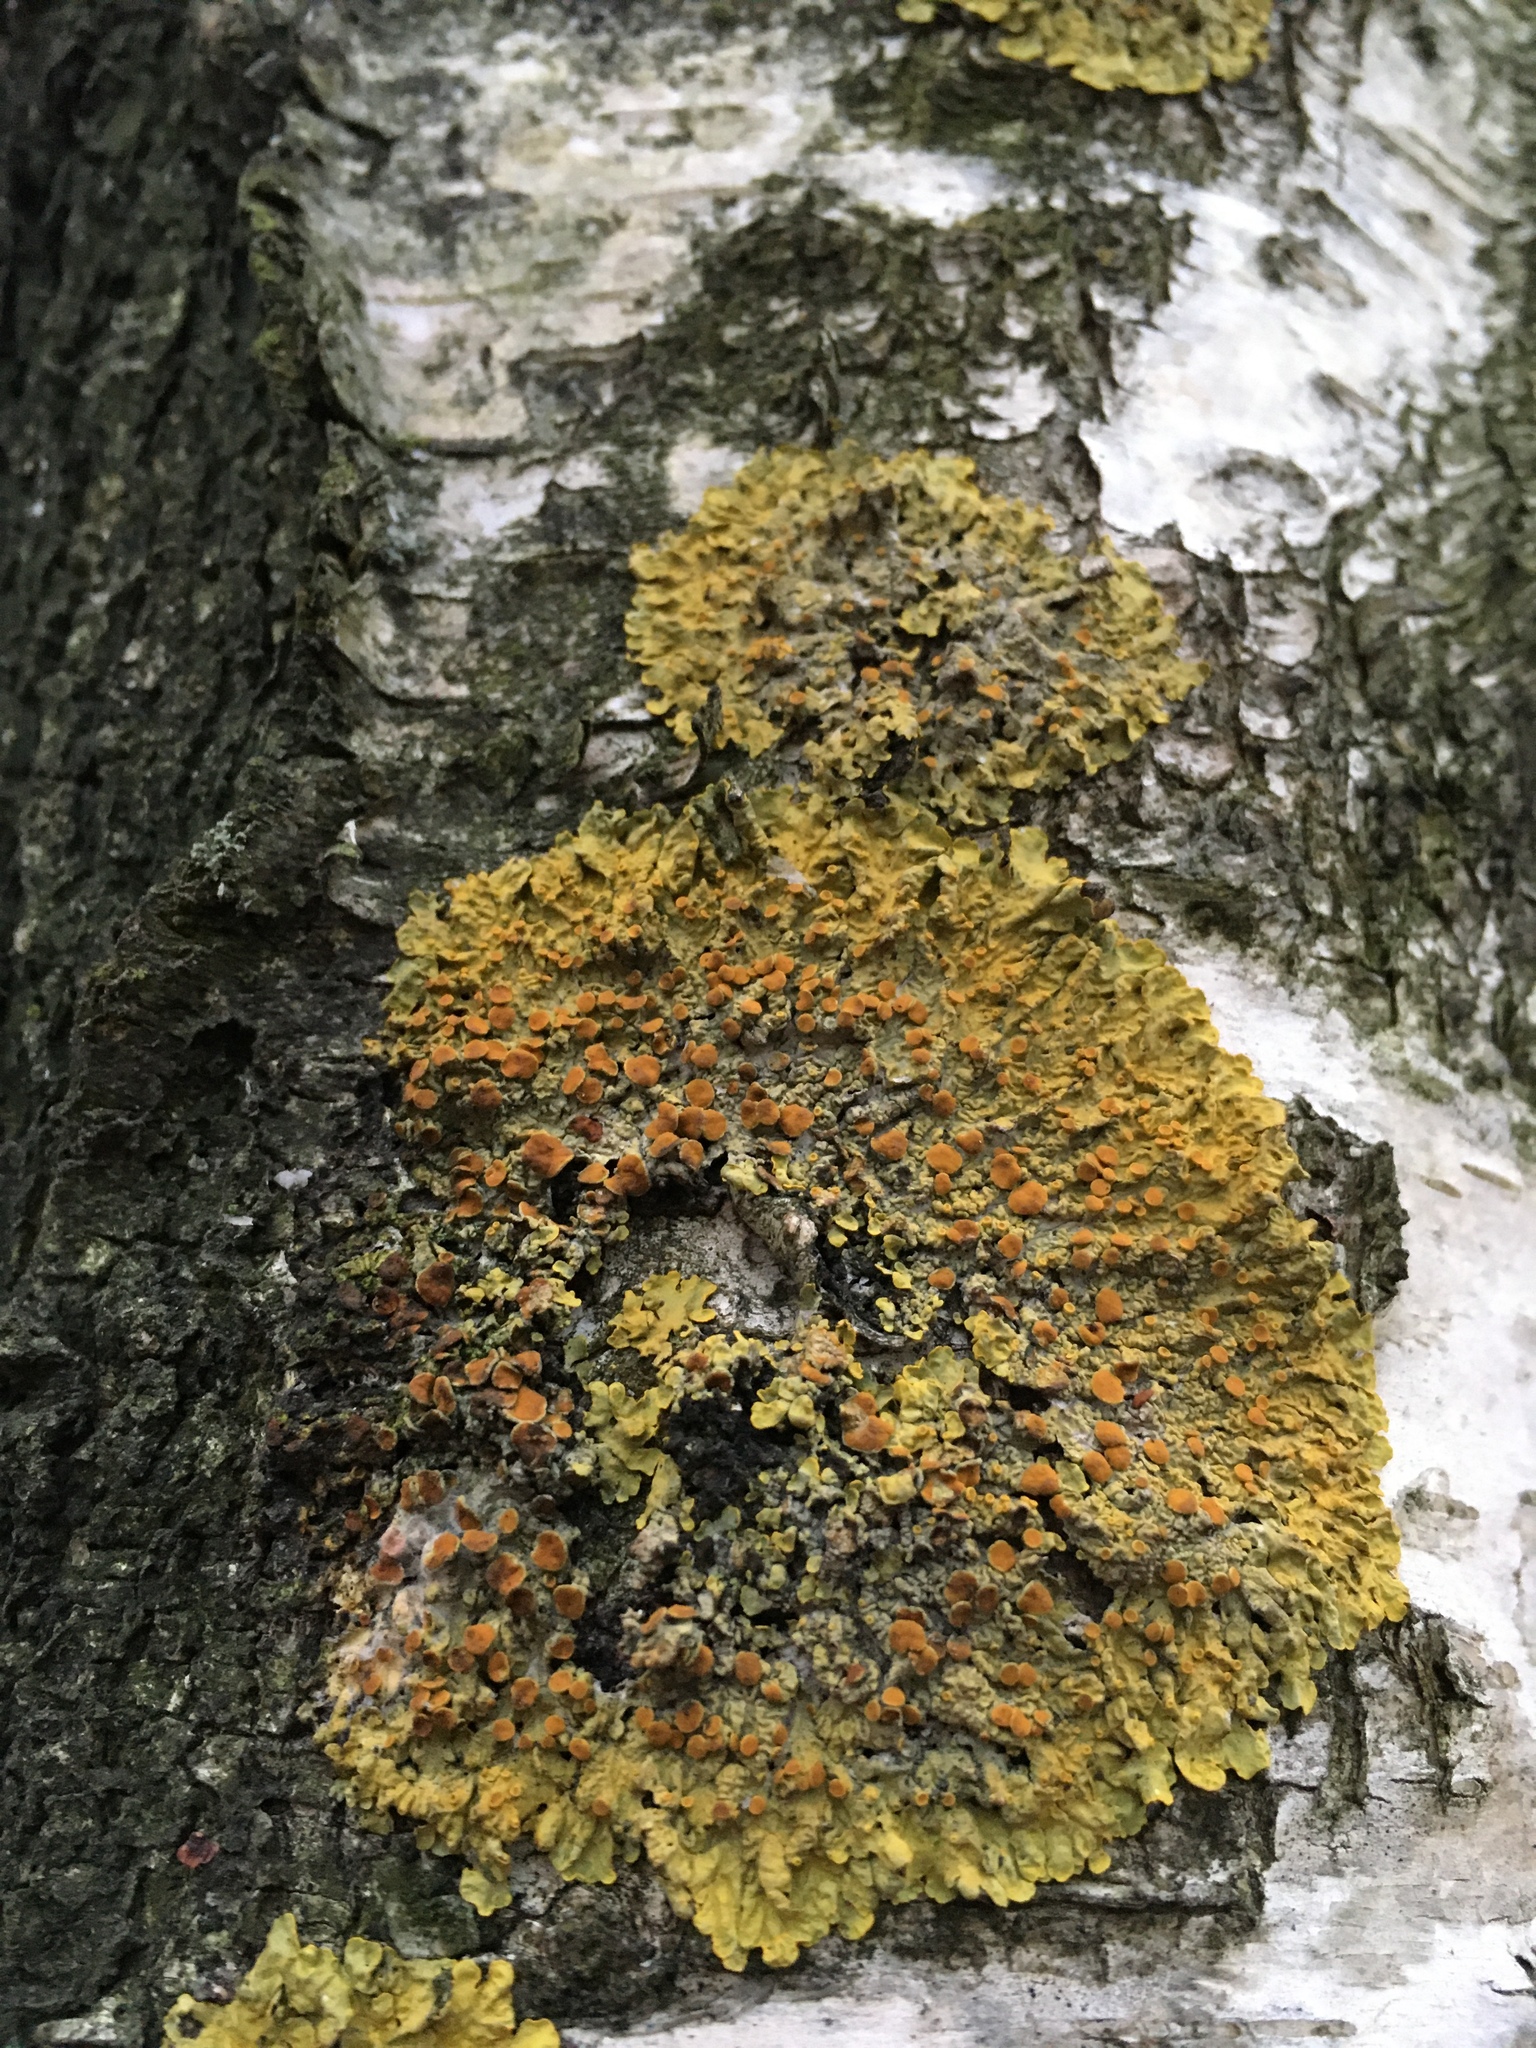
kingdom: Fungi
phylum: Ascomycota
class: Lecanoromycetes
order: Teloschistales
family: Teloschistaceae
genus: Xanthoria
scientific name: Xanthoria parietina
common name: Common orange lichen
